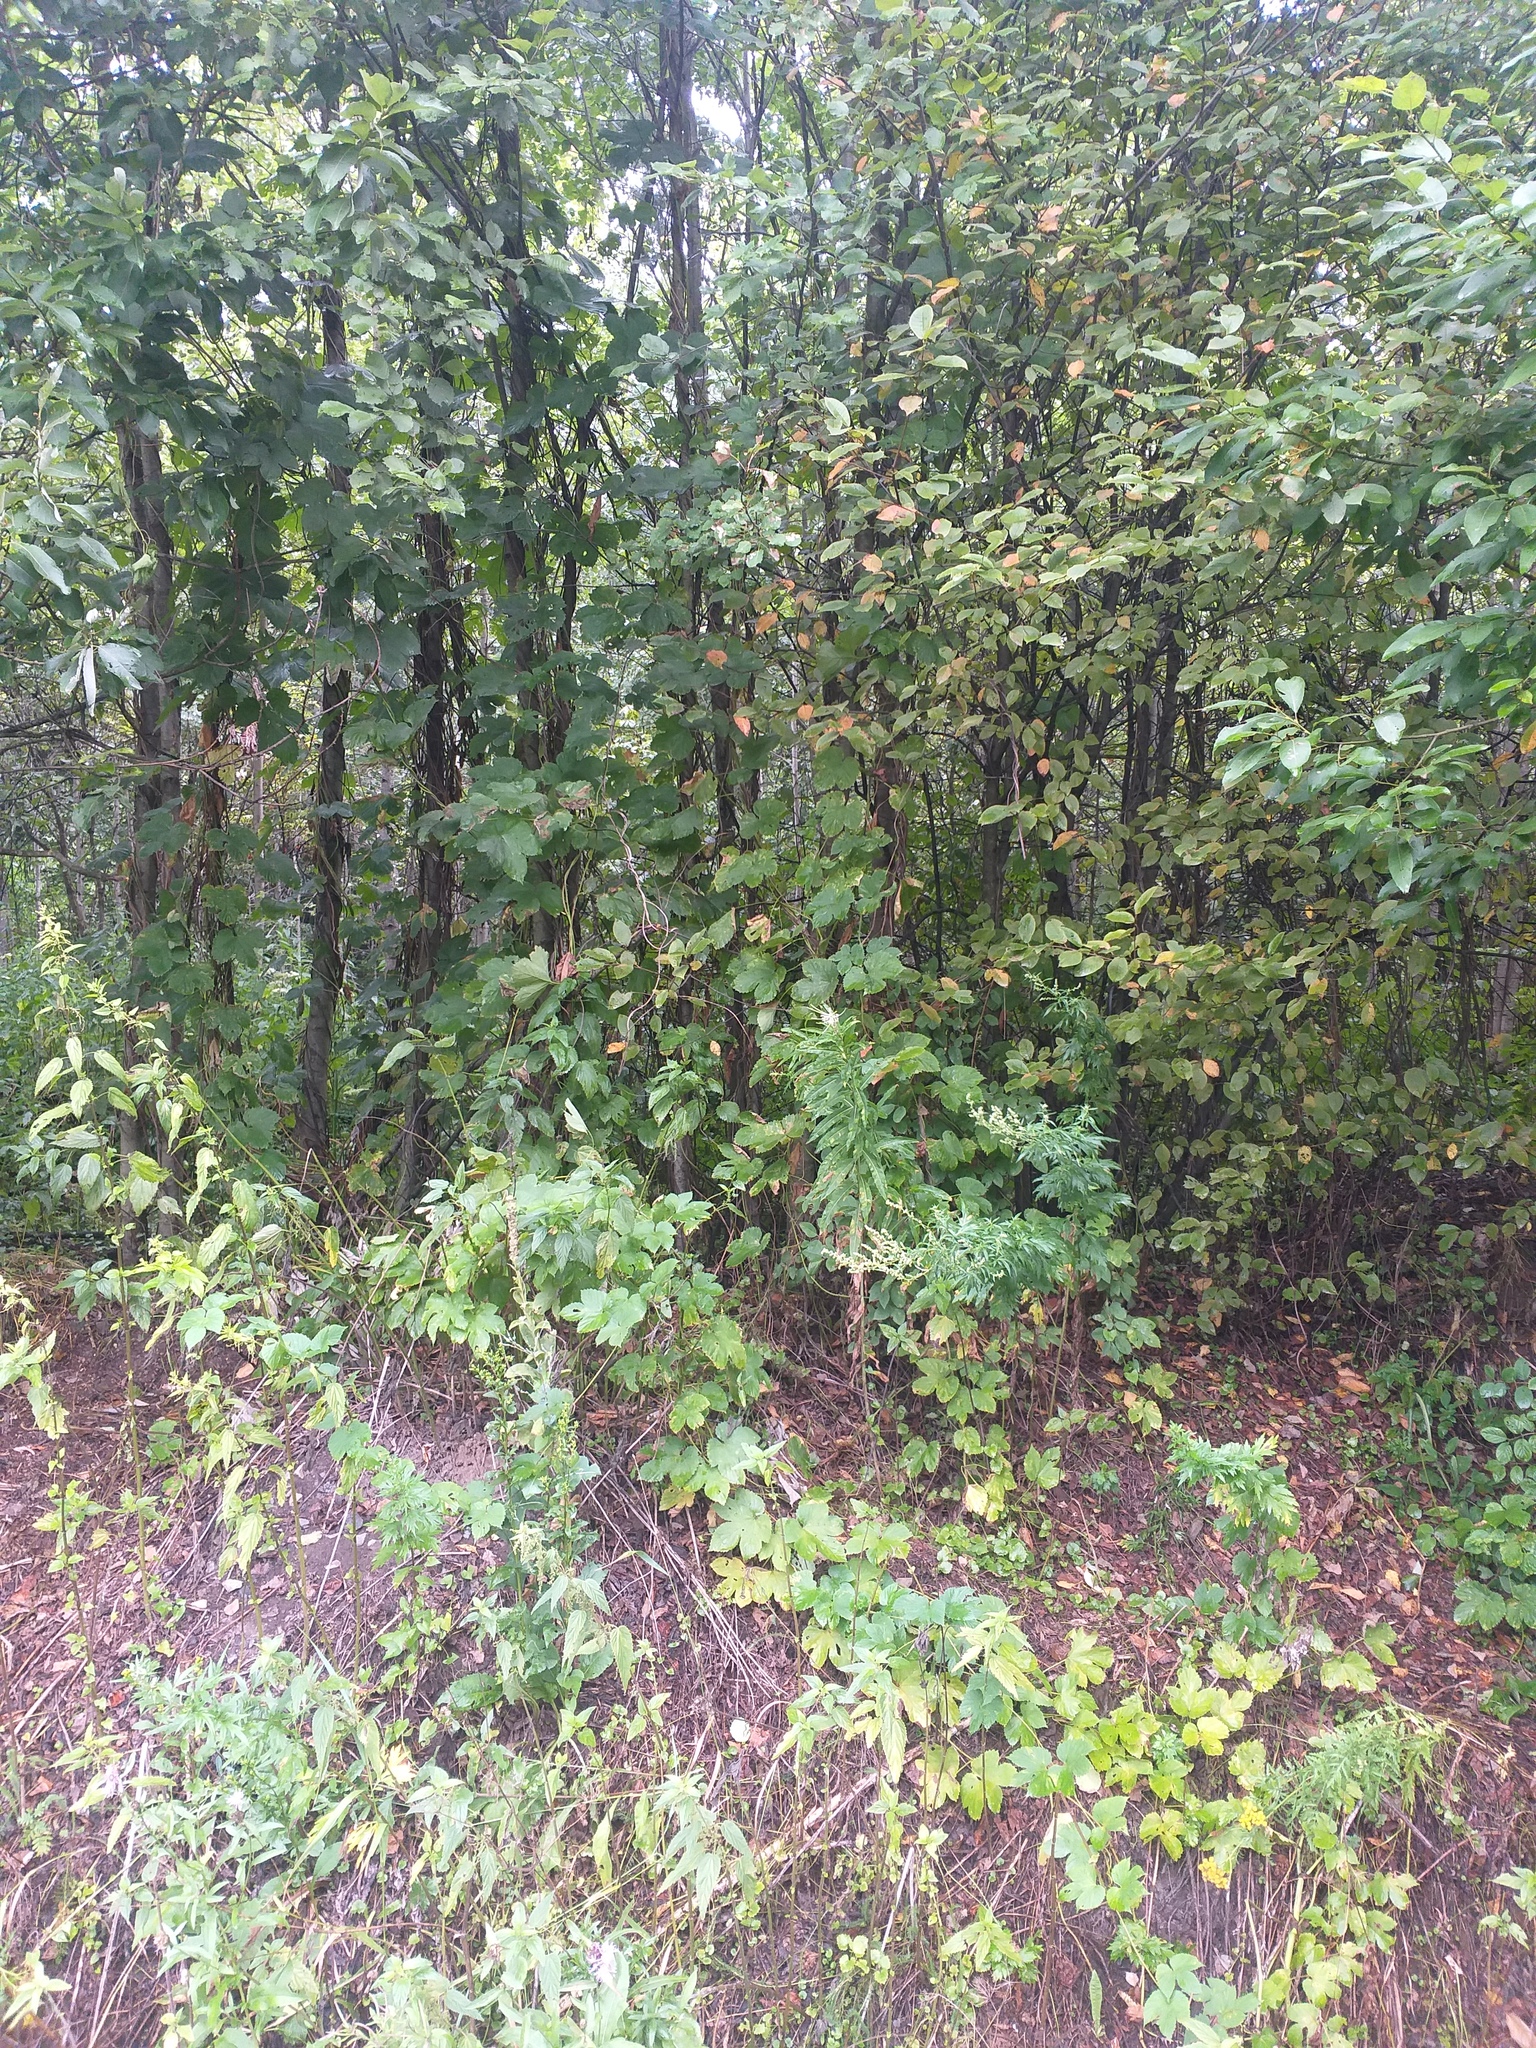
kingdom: Plantae
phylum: Tracheophyta
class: Magnoliopsida
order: Rosales
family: Cannabaceae
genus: Humulus
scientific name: Humulus lupulus
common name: Hop
